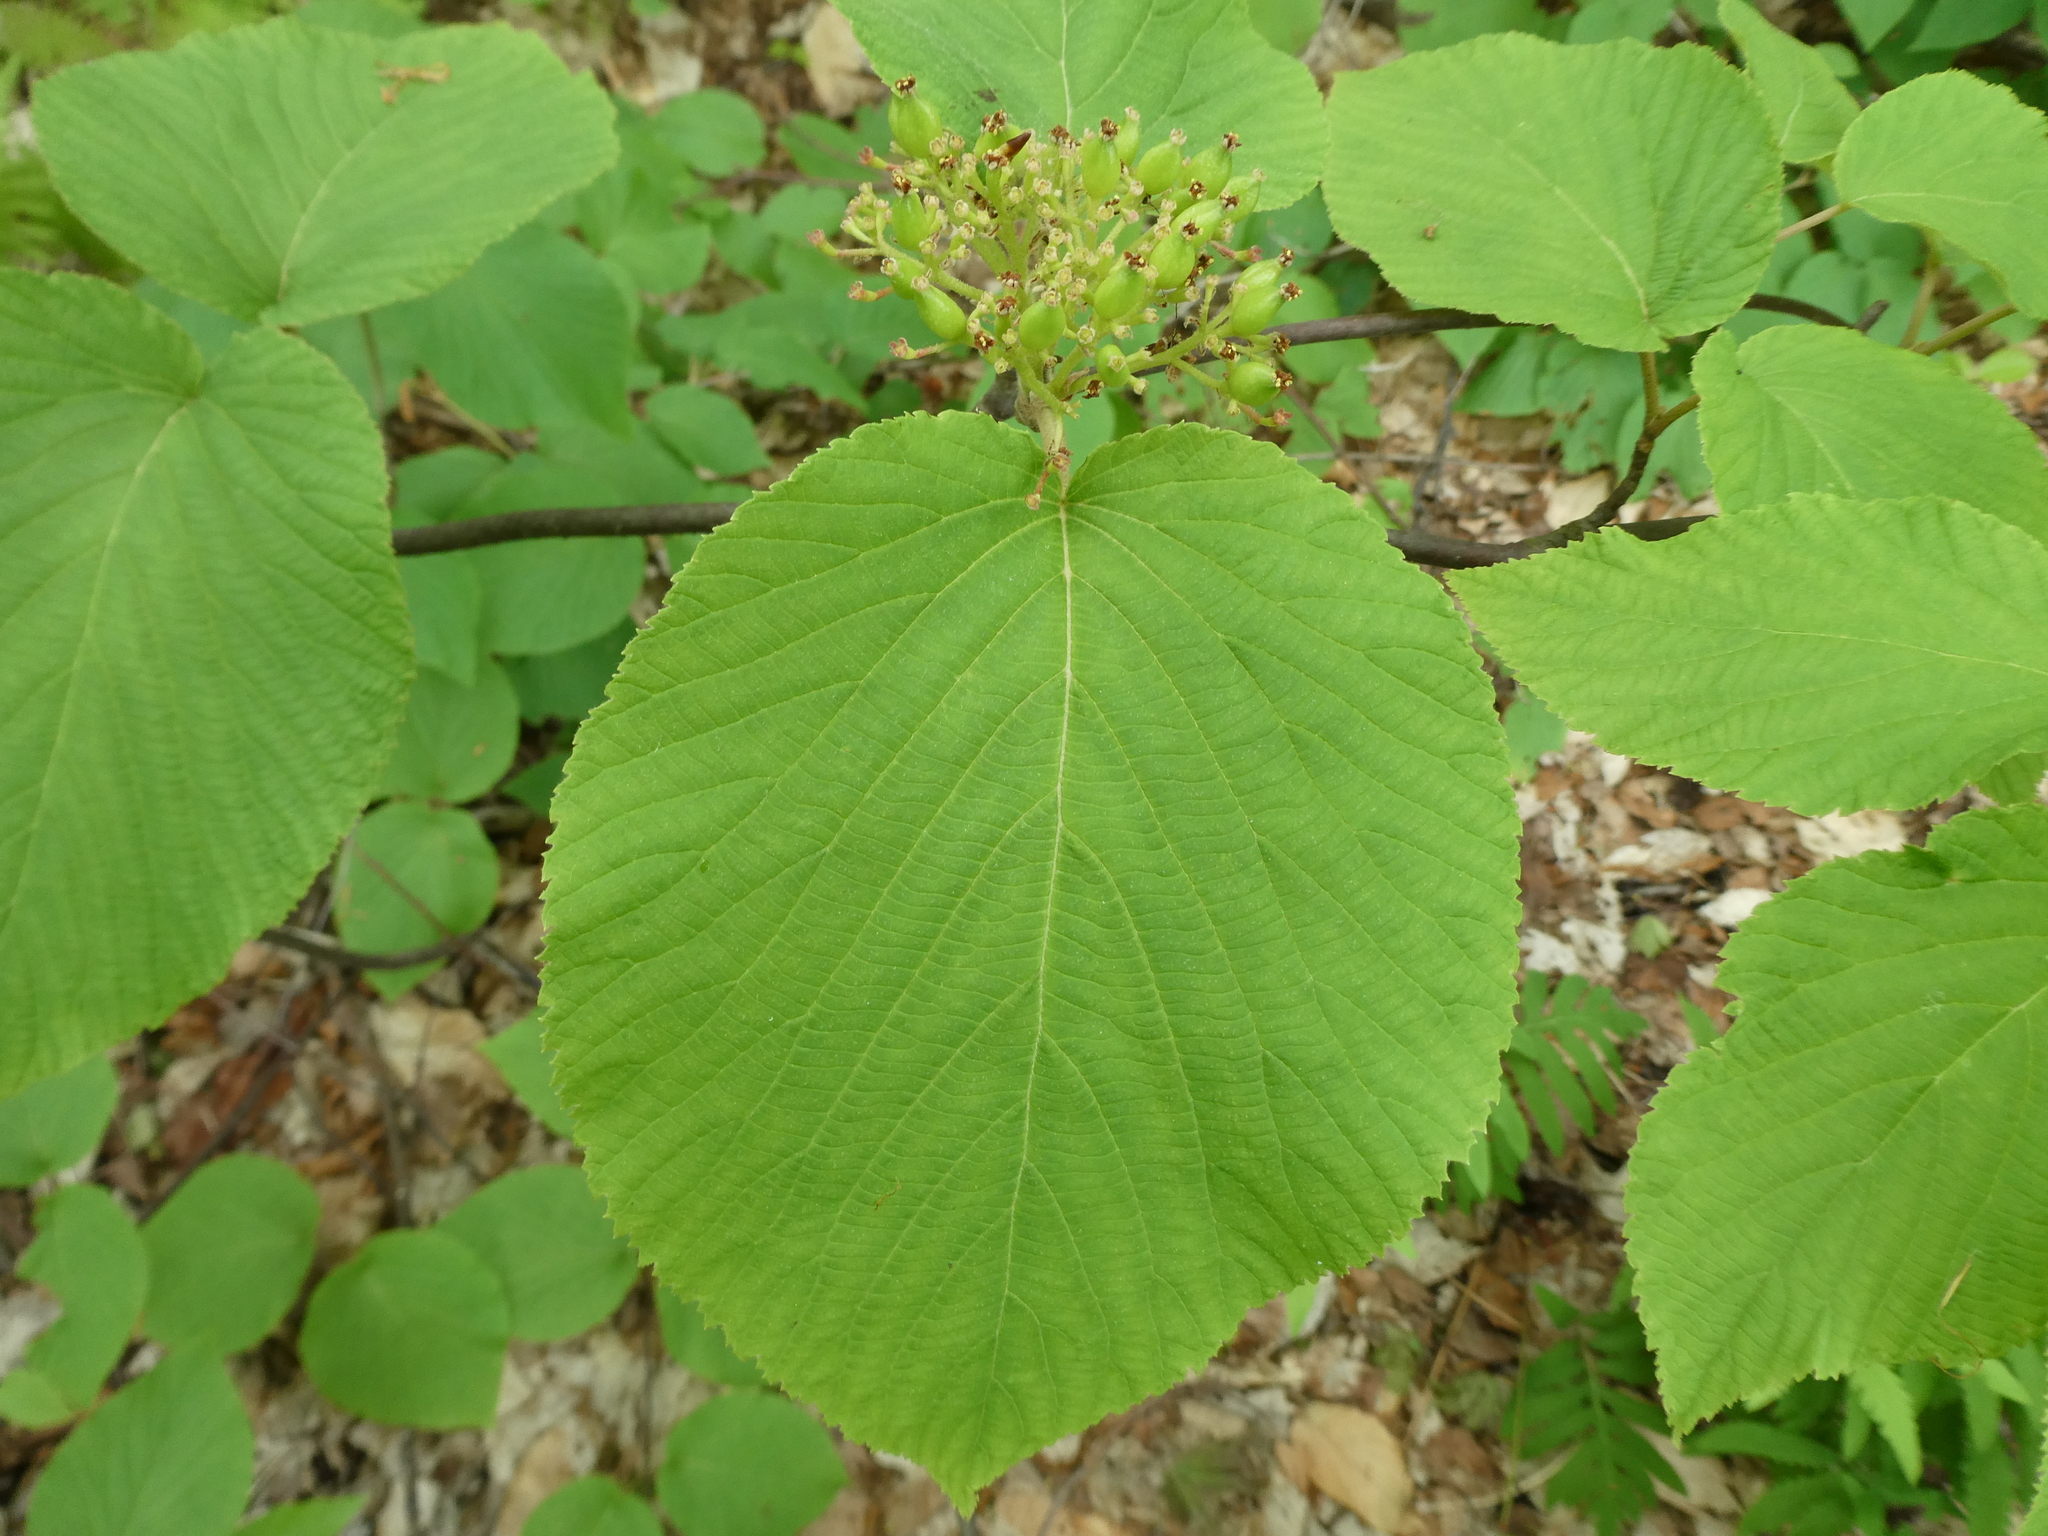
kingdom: Plantae
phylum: Tracheophyta
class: Magnoliopsida
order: Dipsacales
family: Viburnaceae
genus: Viburnum
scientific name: Viburnum lantanoides
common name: Hobblebush
